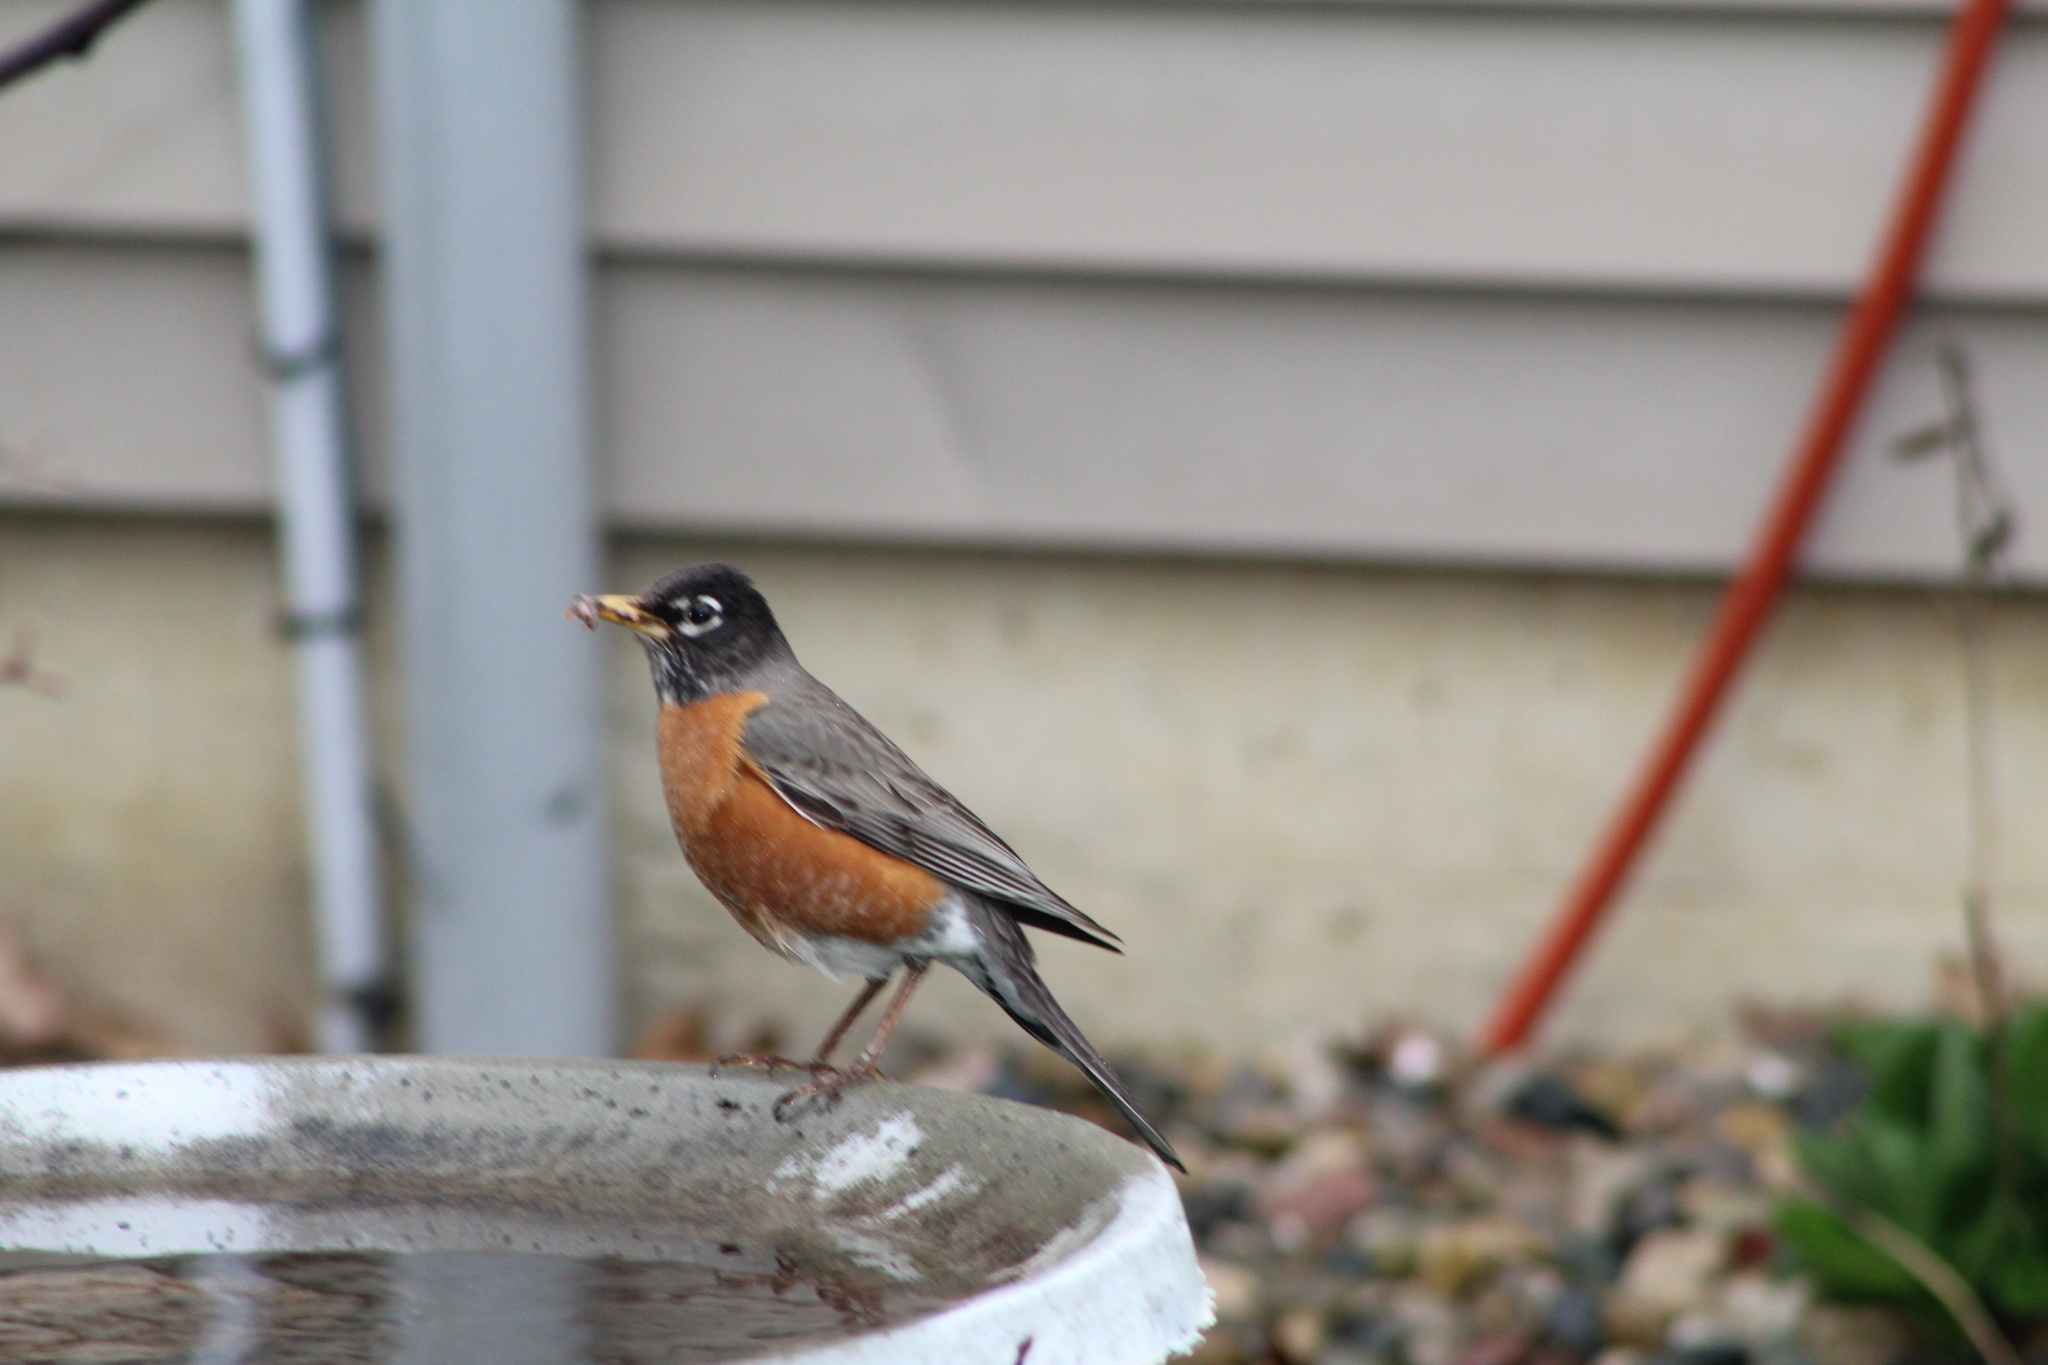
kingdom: Animalia
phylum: Chordata
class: Aves
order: Passeriformes
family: Turdidae
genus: Turdus
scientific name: Turdus migratorius
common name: American robin
